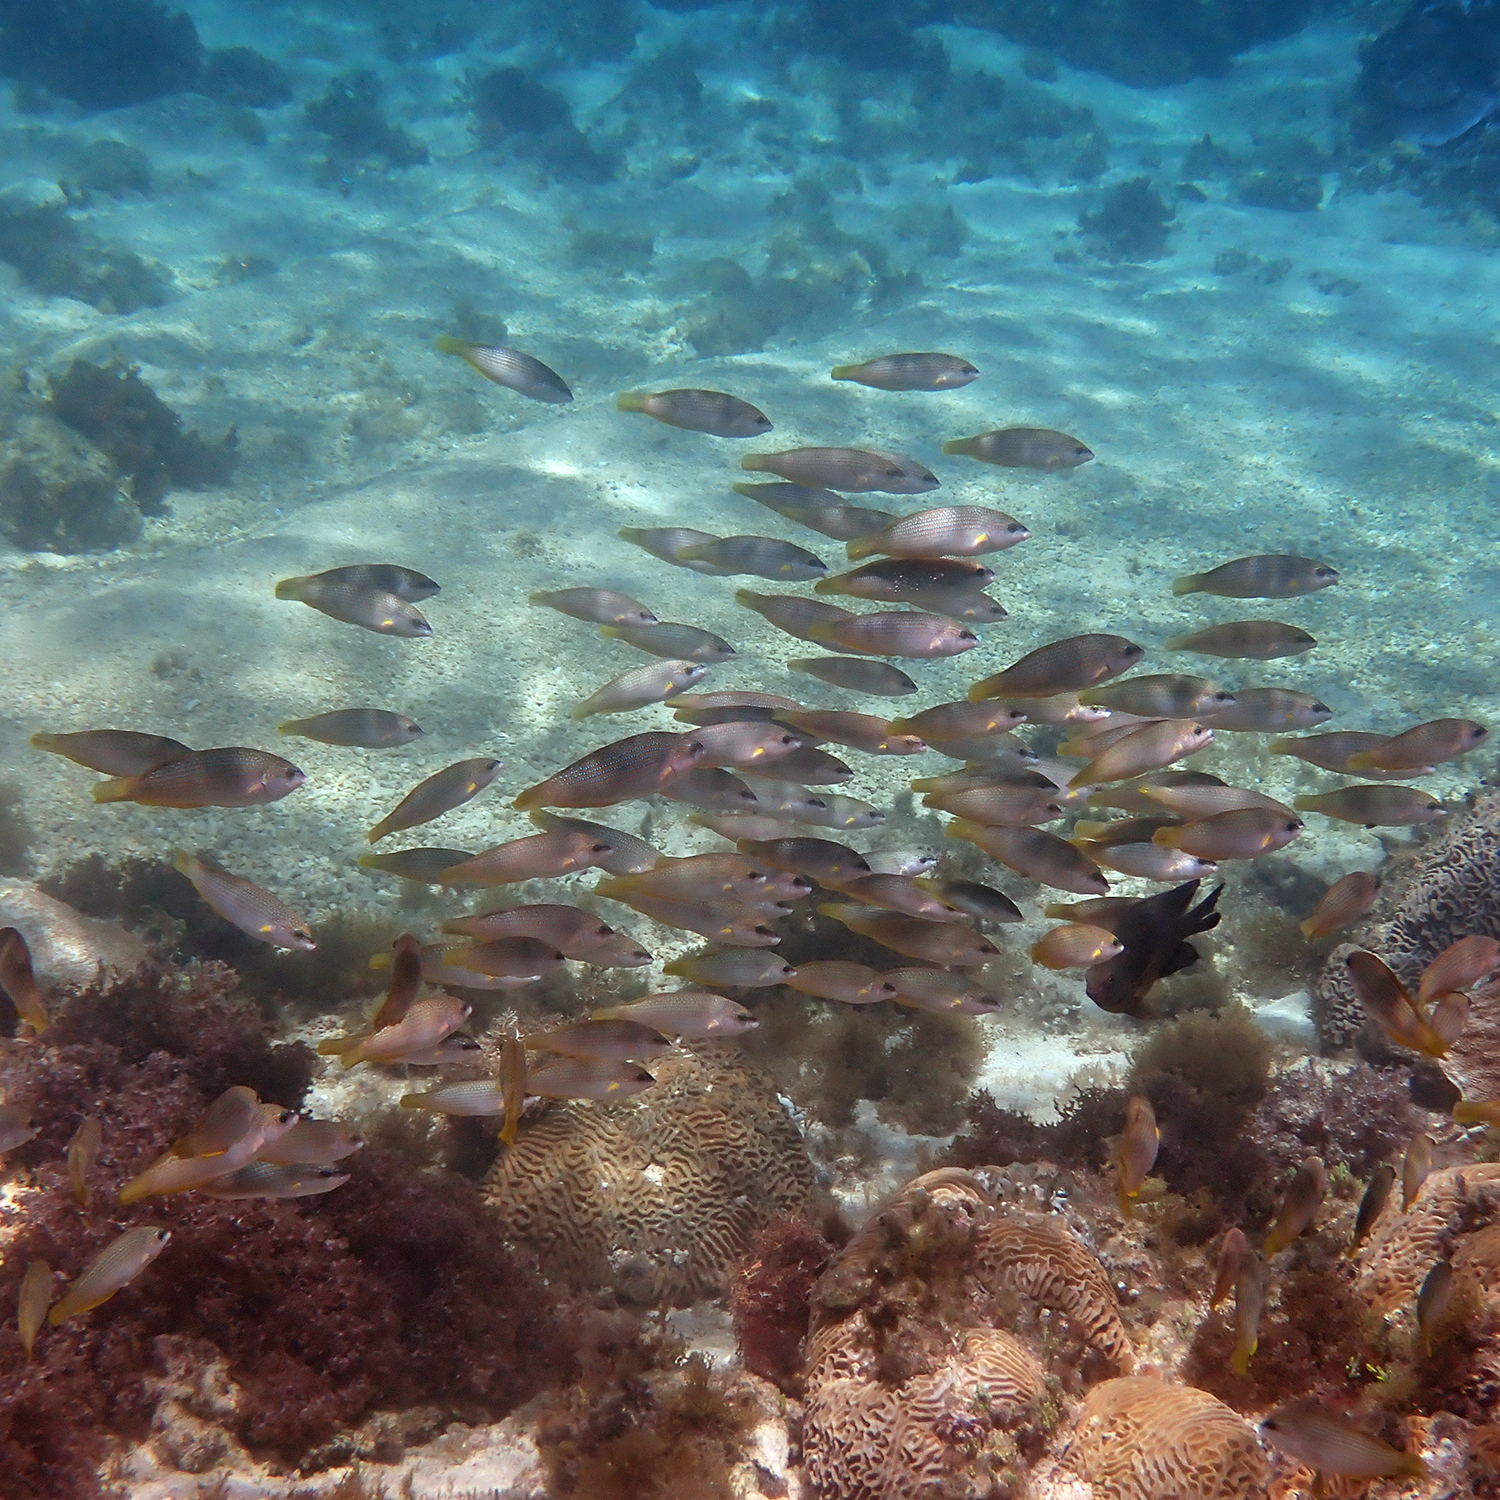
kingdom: Animalia
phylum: Chordata
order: Perciformes
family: Labridae
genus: Anampses
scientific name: Anampses elegans
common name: Elegant wrasse
